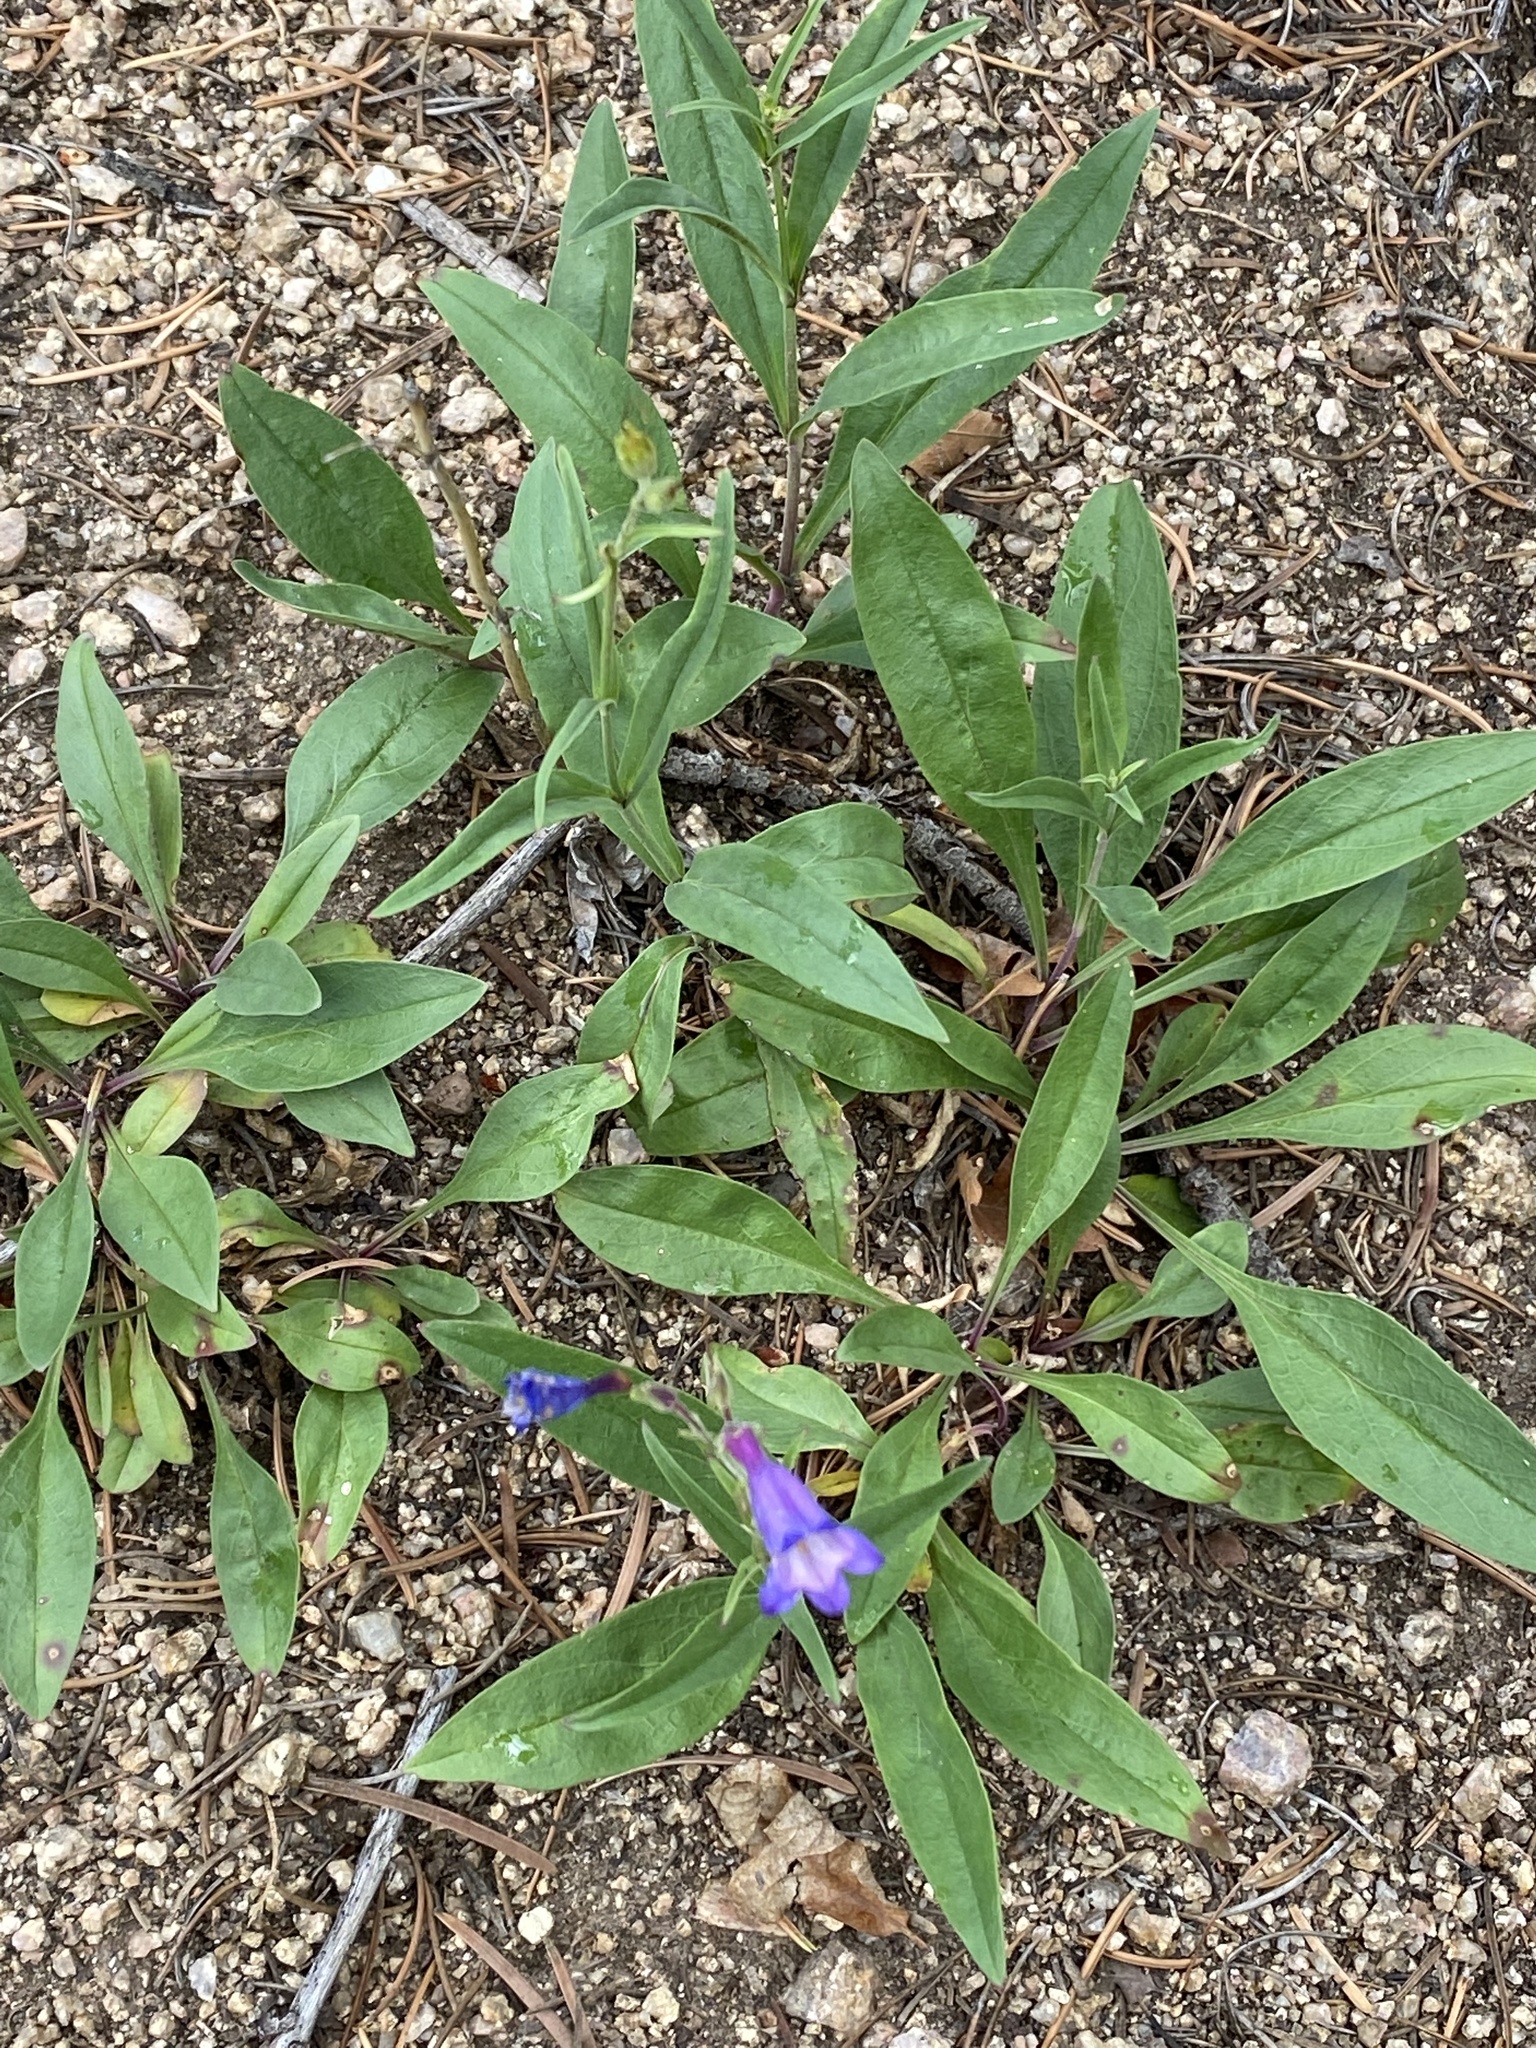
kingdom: Plantae
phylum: Tracheophyta
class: Magnoliopsida
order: Lamiales
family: Plantaginaceae
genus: Penstemon
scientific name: Penstemon inflatus
